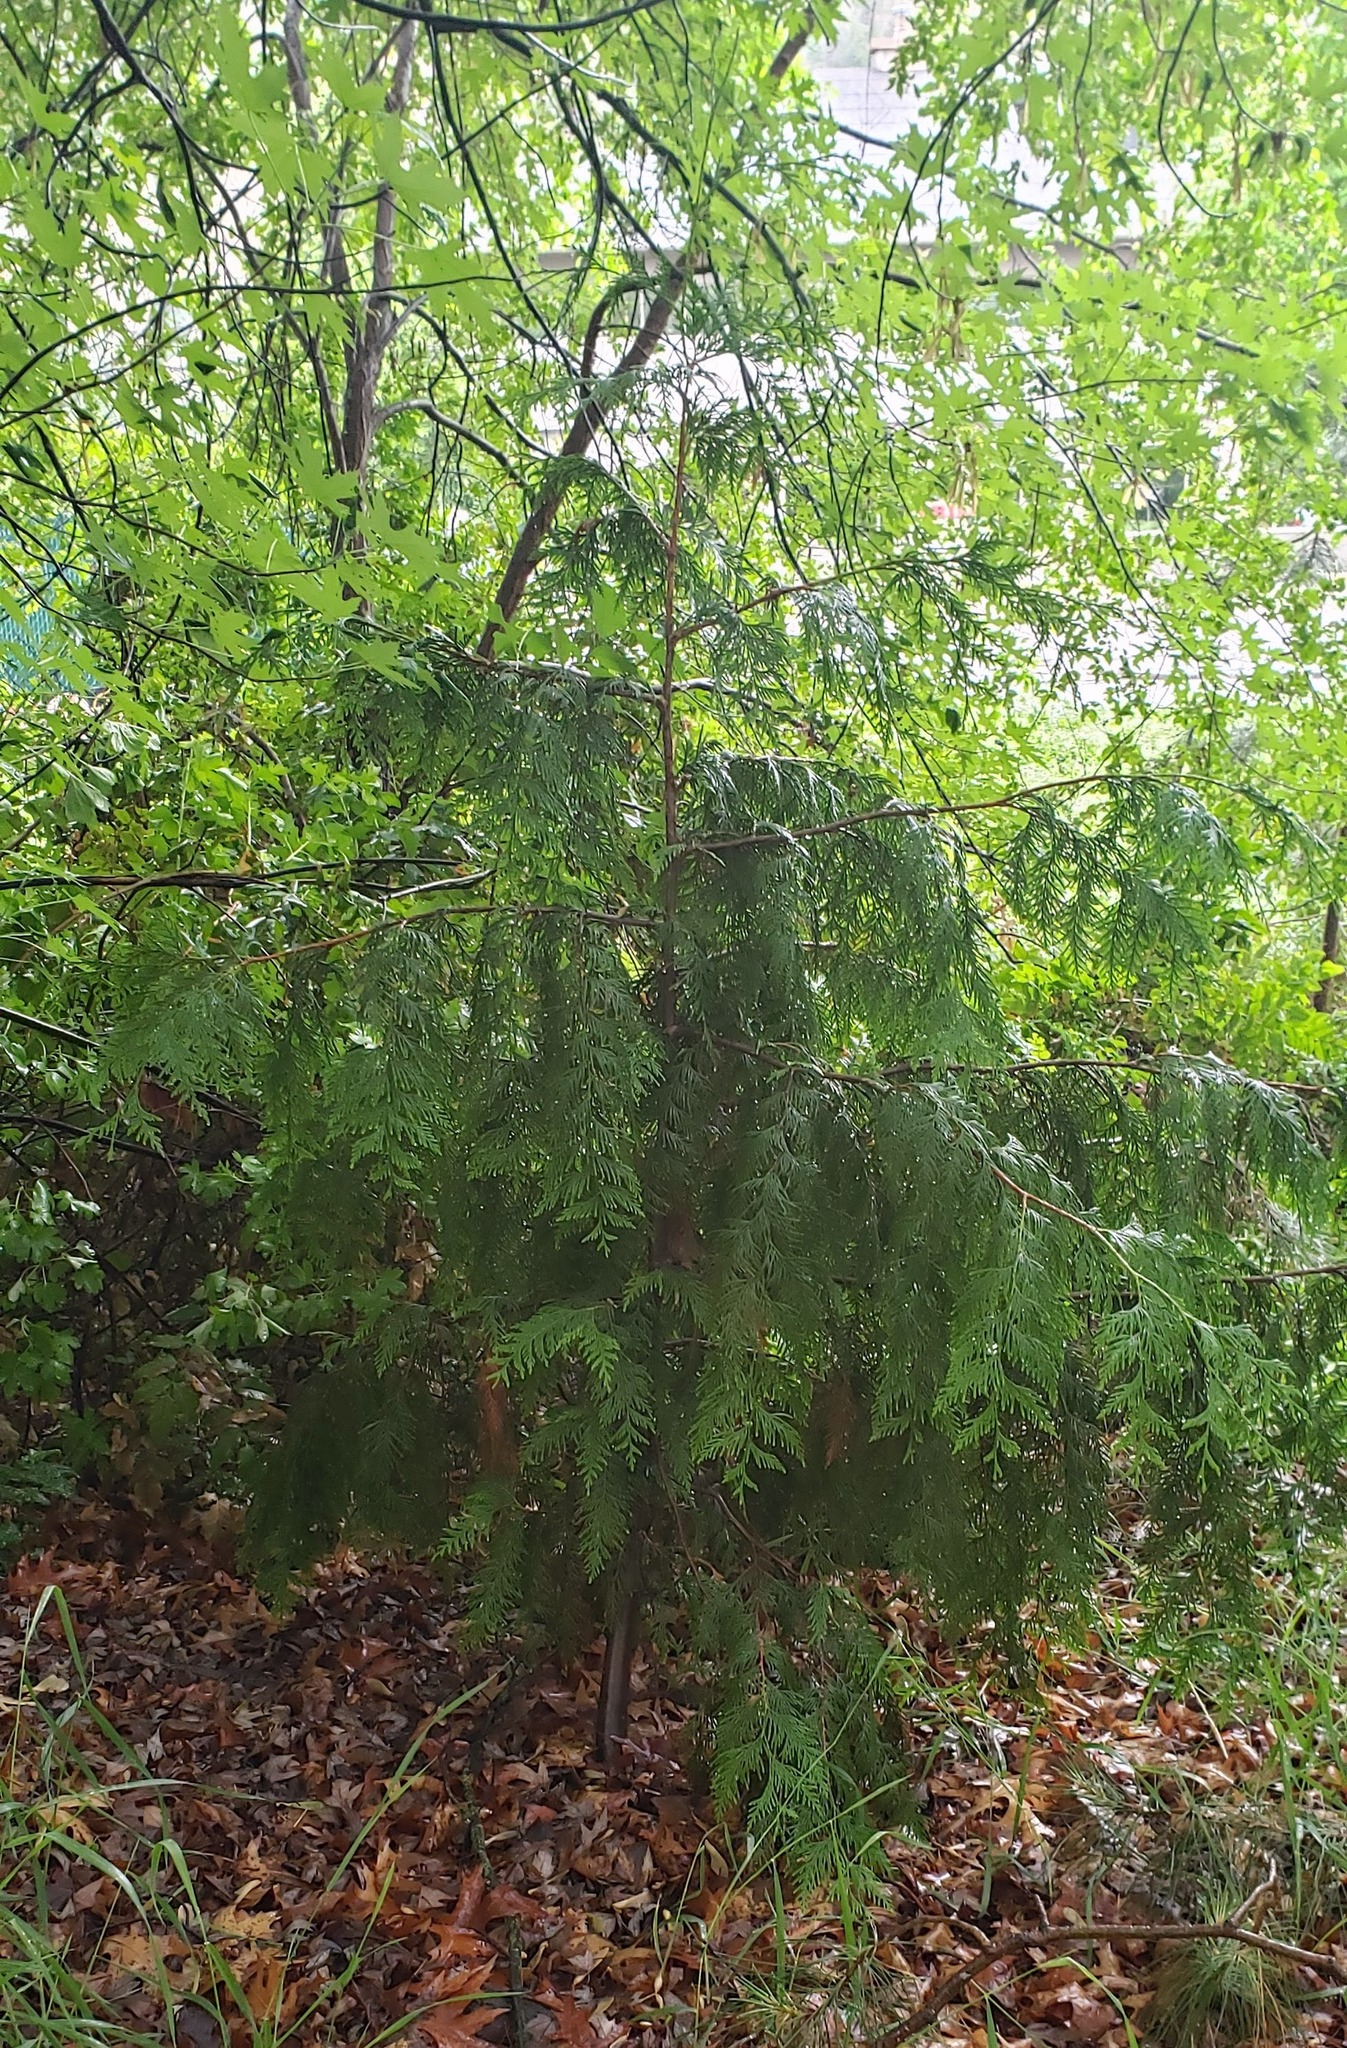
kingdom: Plantae
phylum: Tracheophyta
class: Pinopsida
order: Pinales
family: Cupressaceae
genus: Thuja
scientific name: Thuja plicata
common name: Western red-cedar
